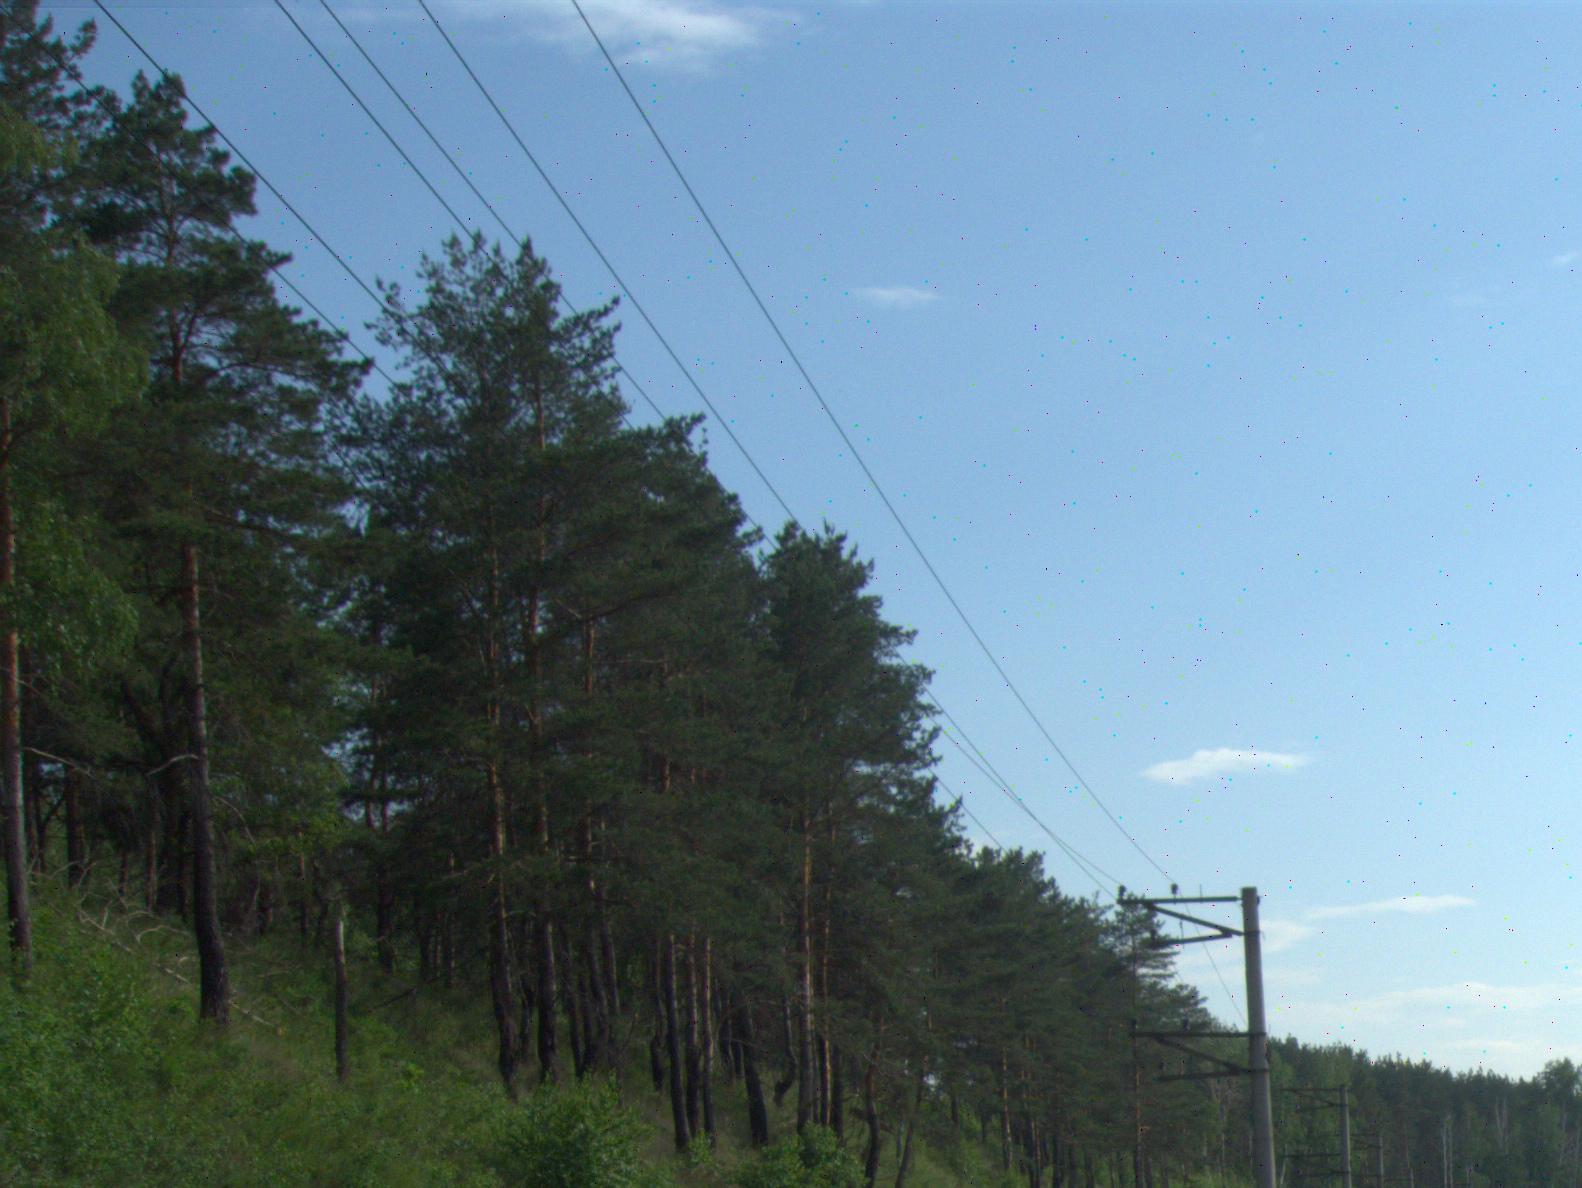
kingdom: Plantae
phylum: Tracheophyta
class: Pinopsida
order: Pinales
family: Pinaceae
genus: Pinus
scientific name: Pinus sylvestris
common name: Scots pine
